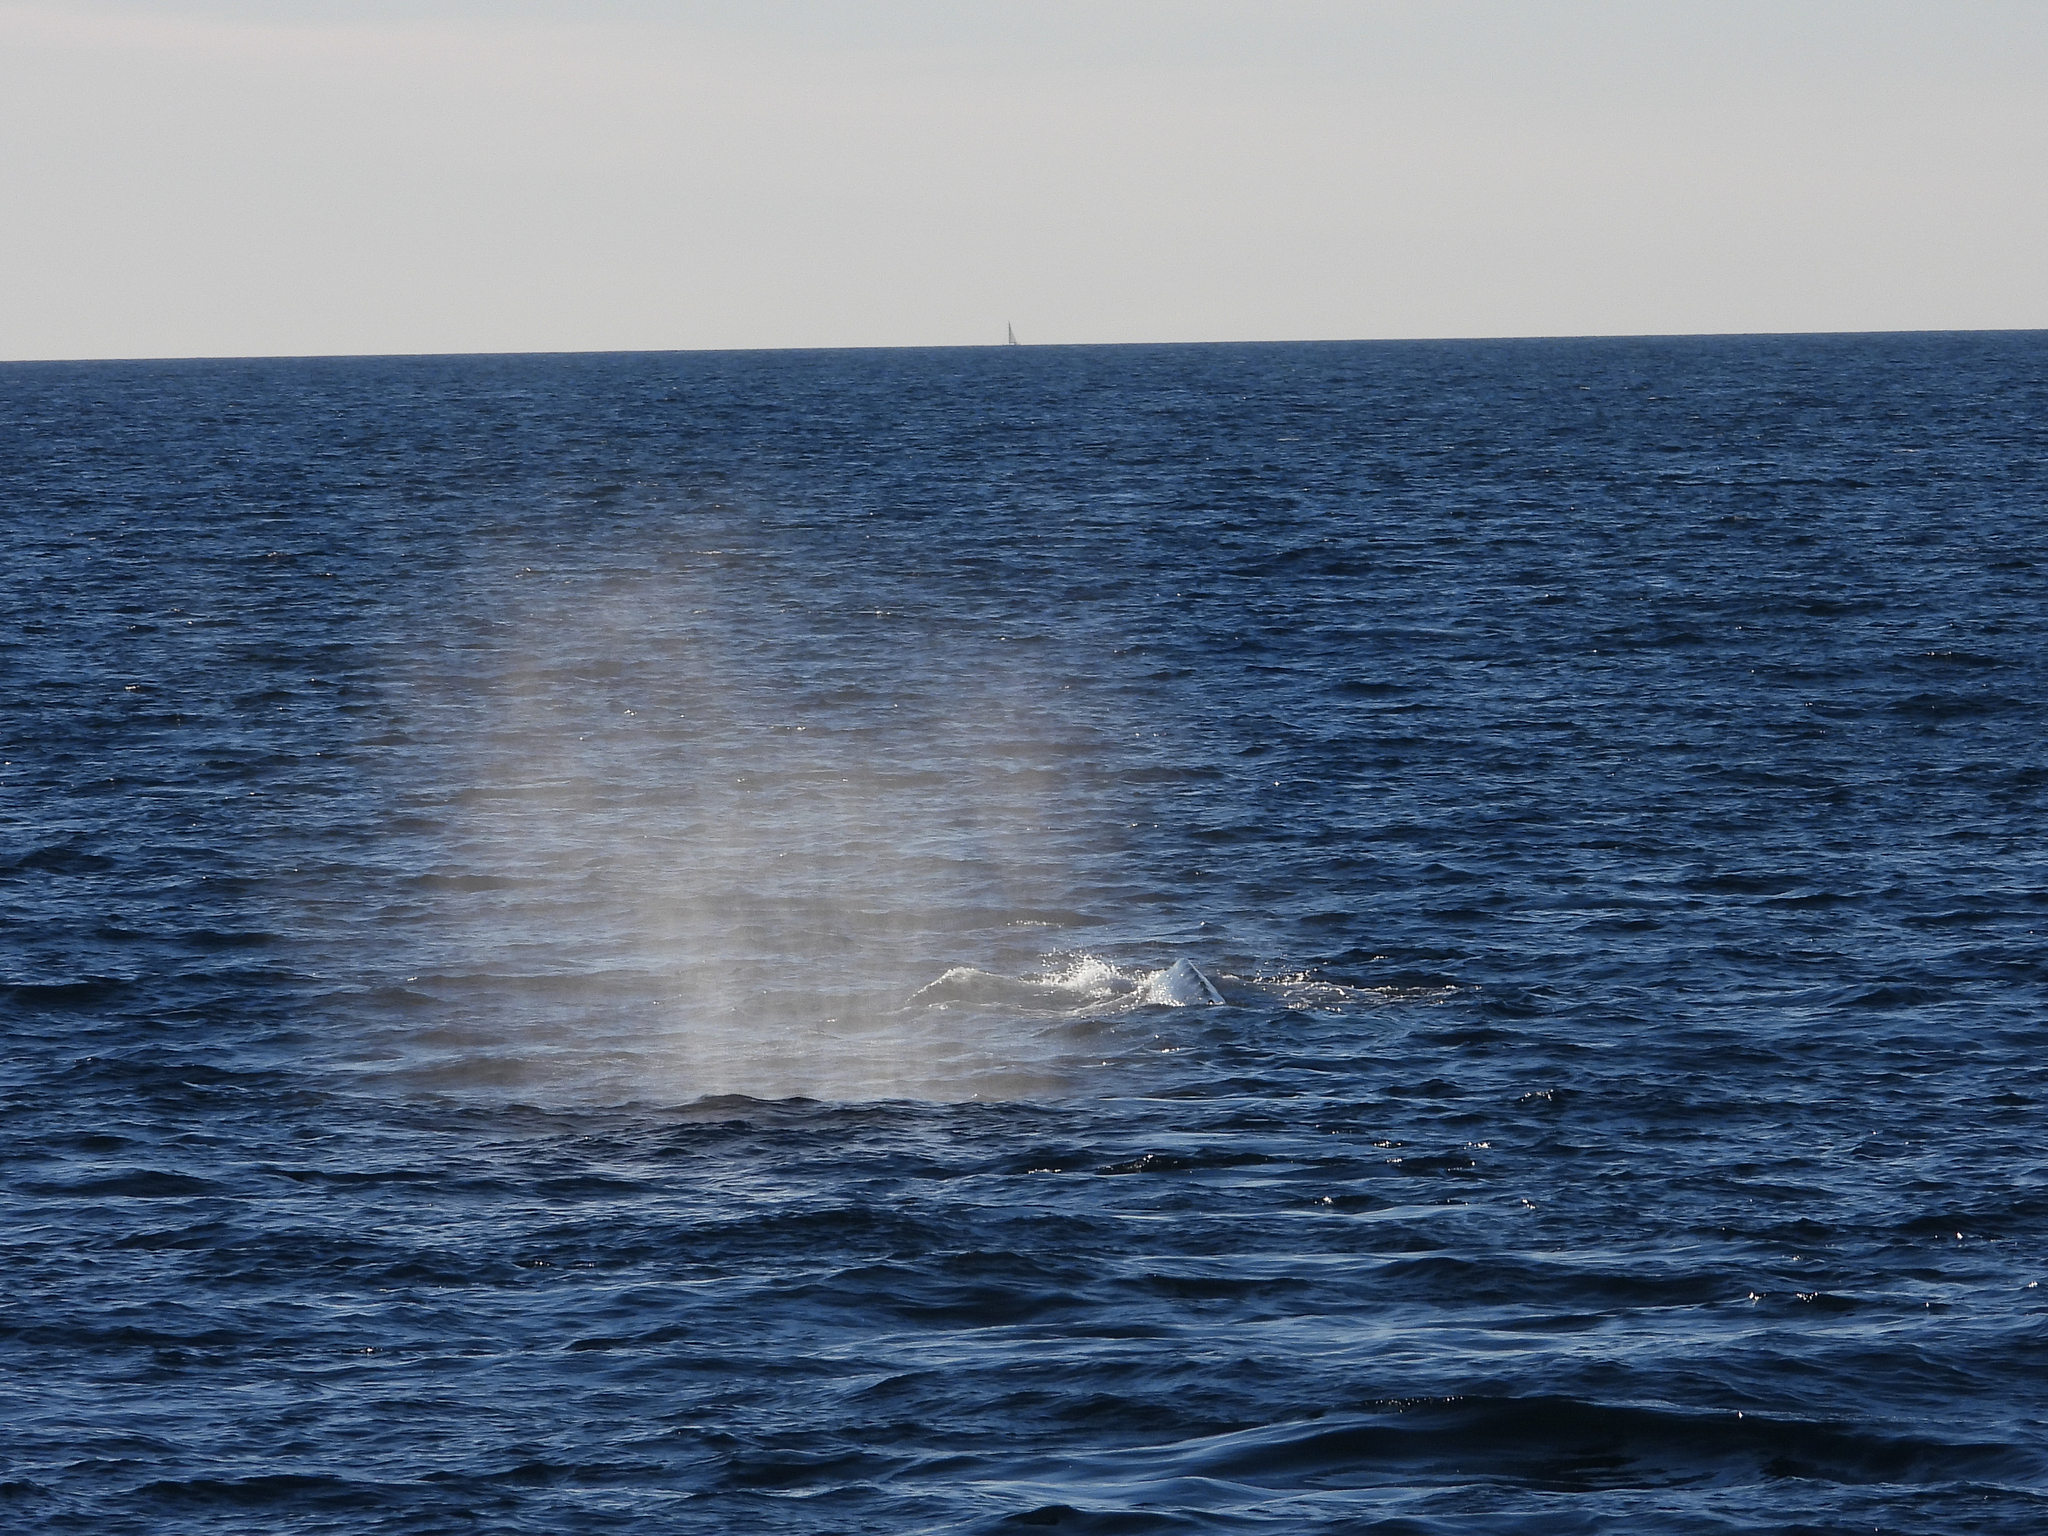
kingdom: Animalia
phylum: Chordata
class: Mammalia
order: Cetacea
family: Balaenopteridae
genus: Megaptera
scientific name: Megaptera novaeangliae
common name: Humpback whale
